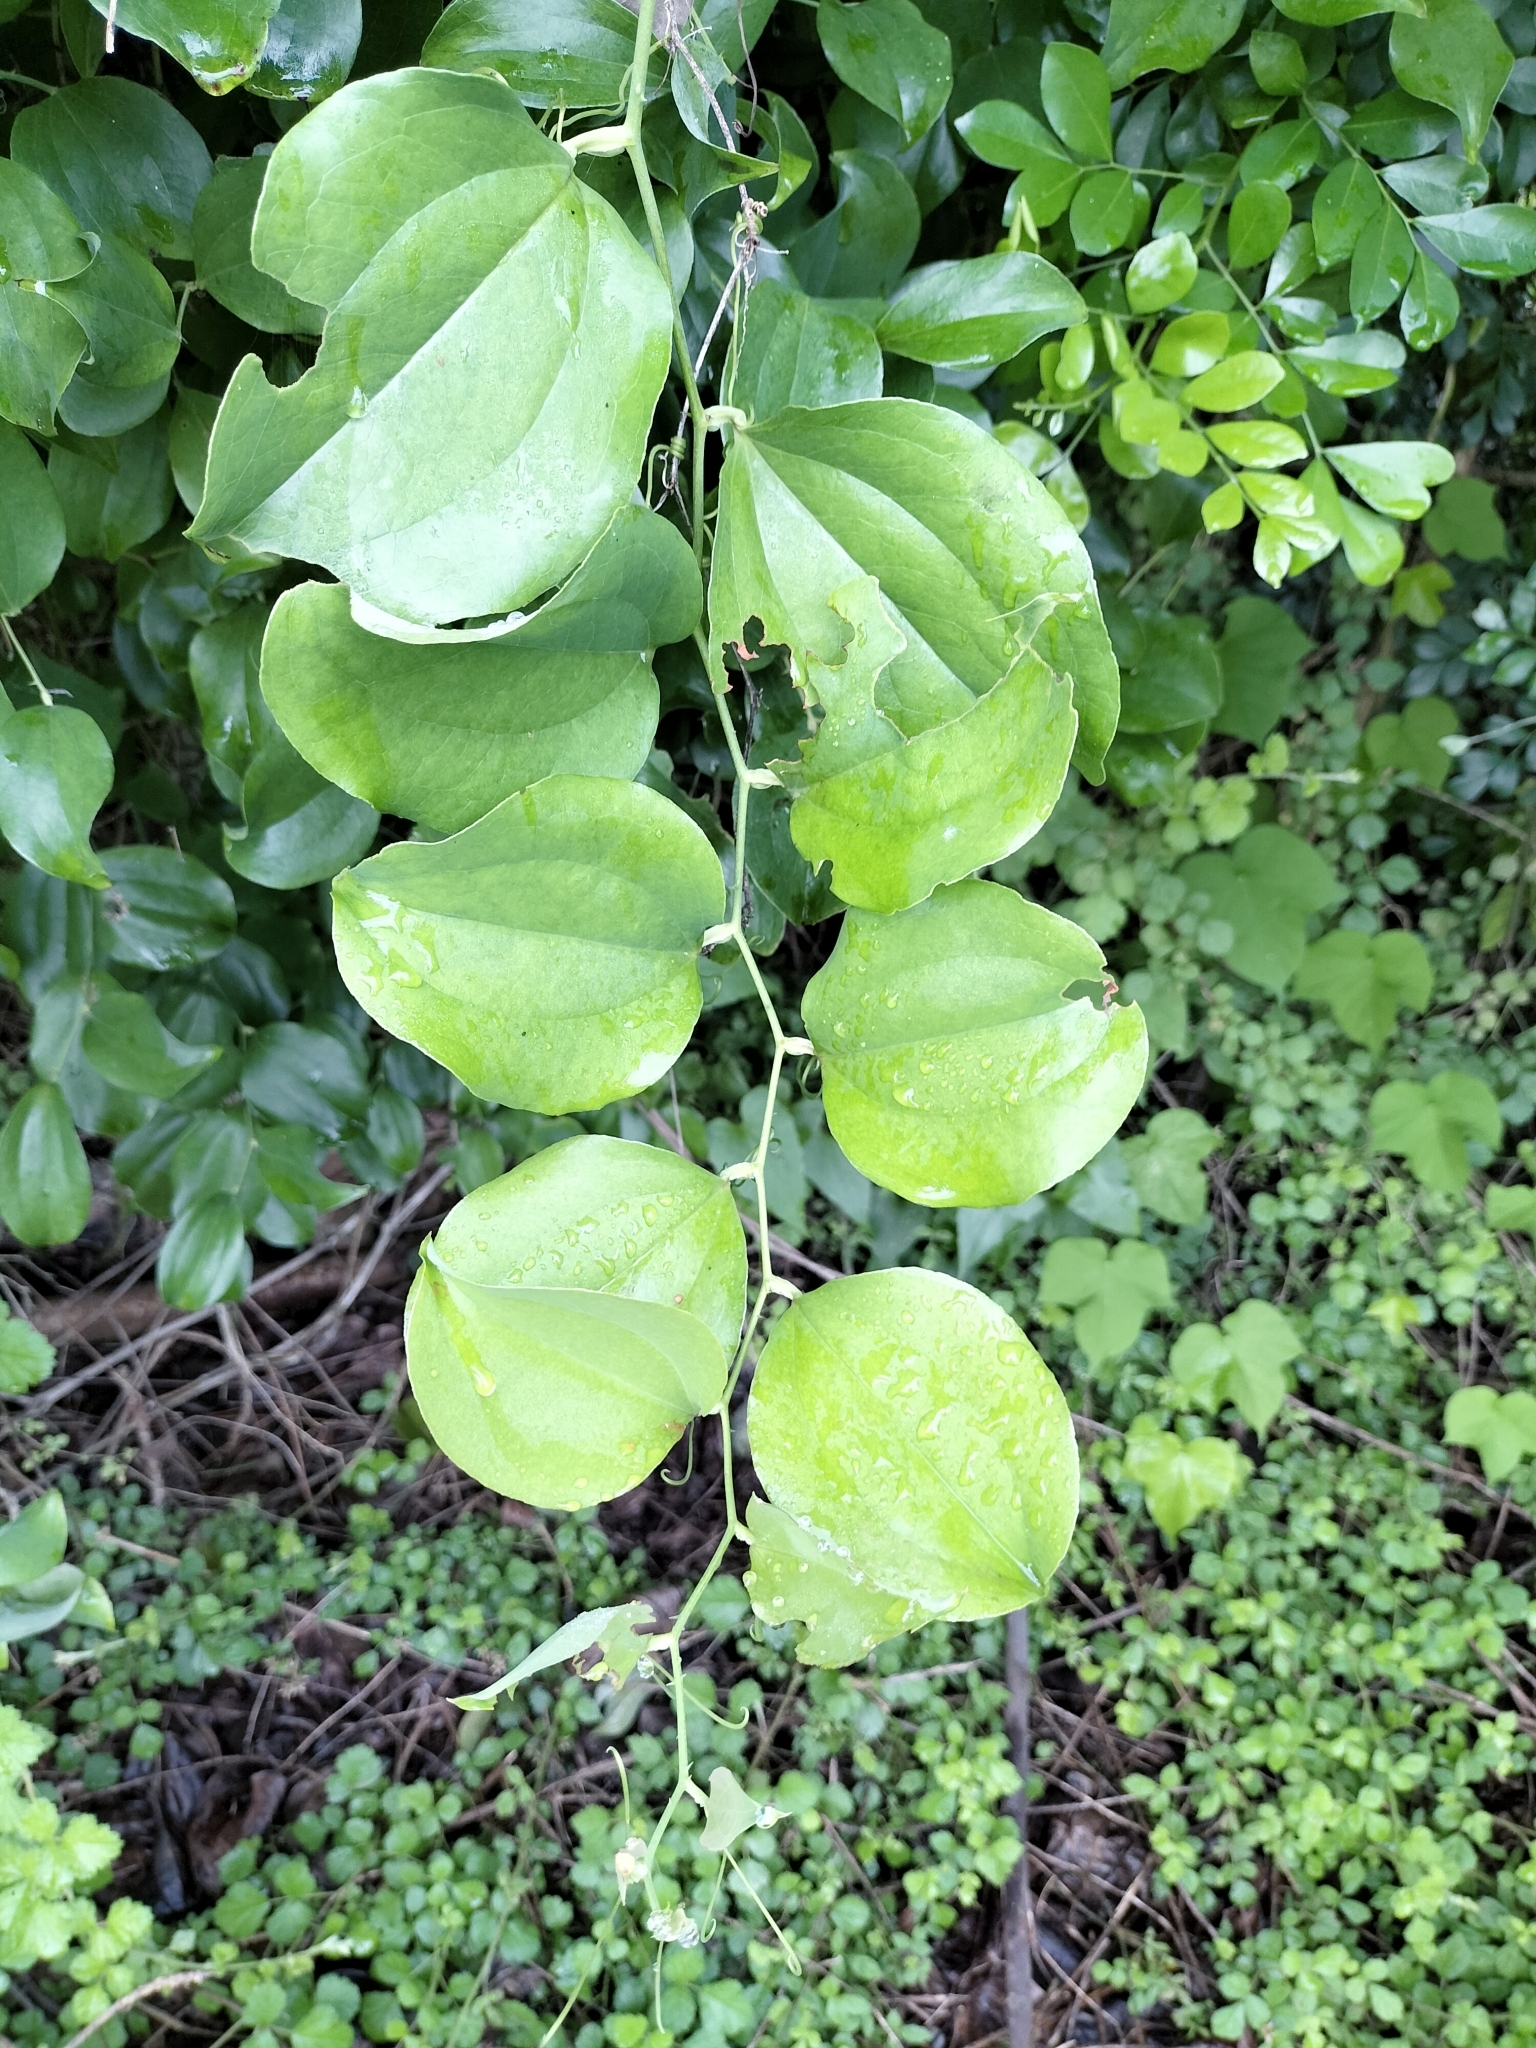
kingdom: Plantae
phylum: Tracheophyta
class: Liliopsida
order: Liliales
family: Smilacaceae
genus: Smilax
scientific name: Smilax china
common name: Chinaroot
